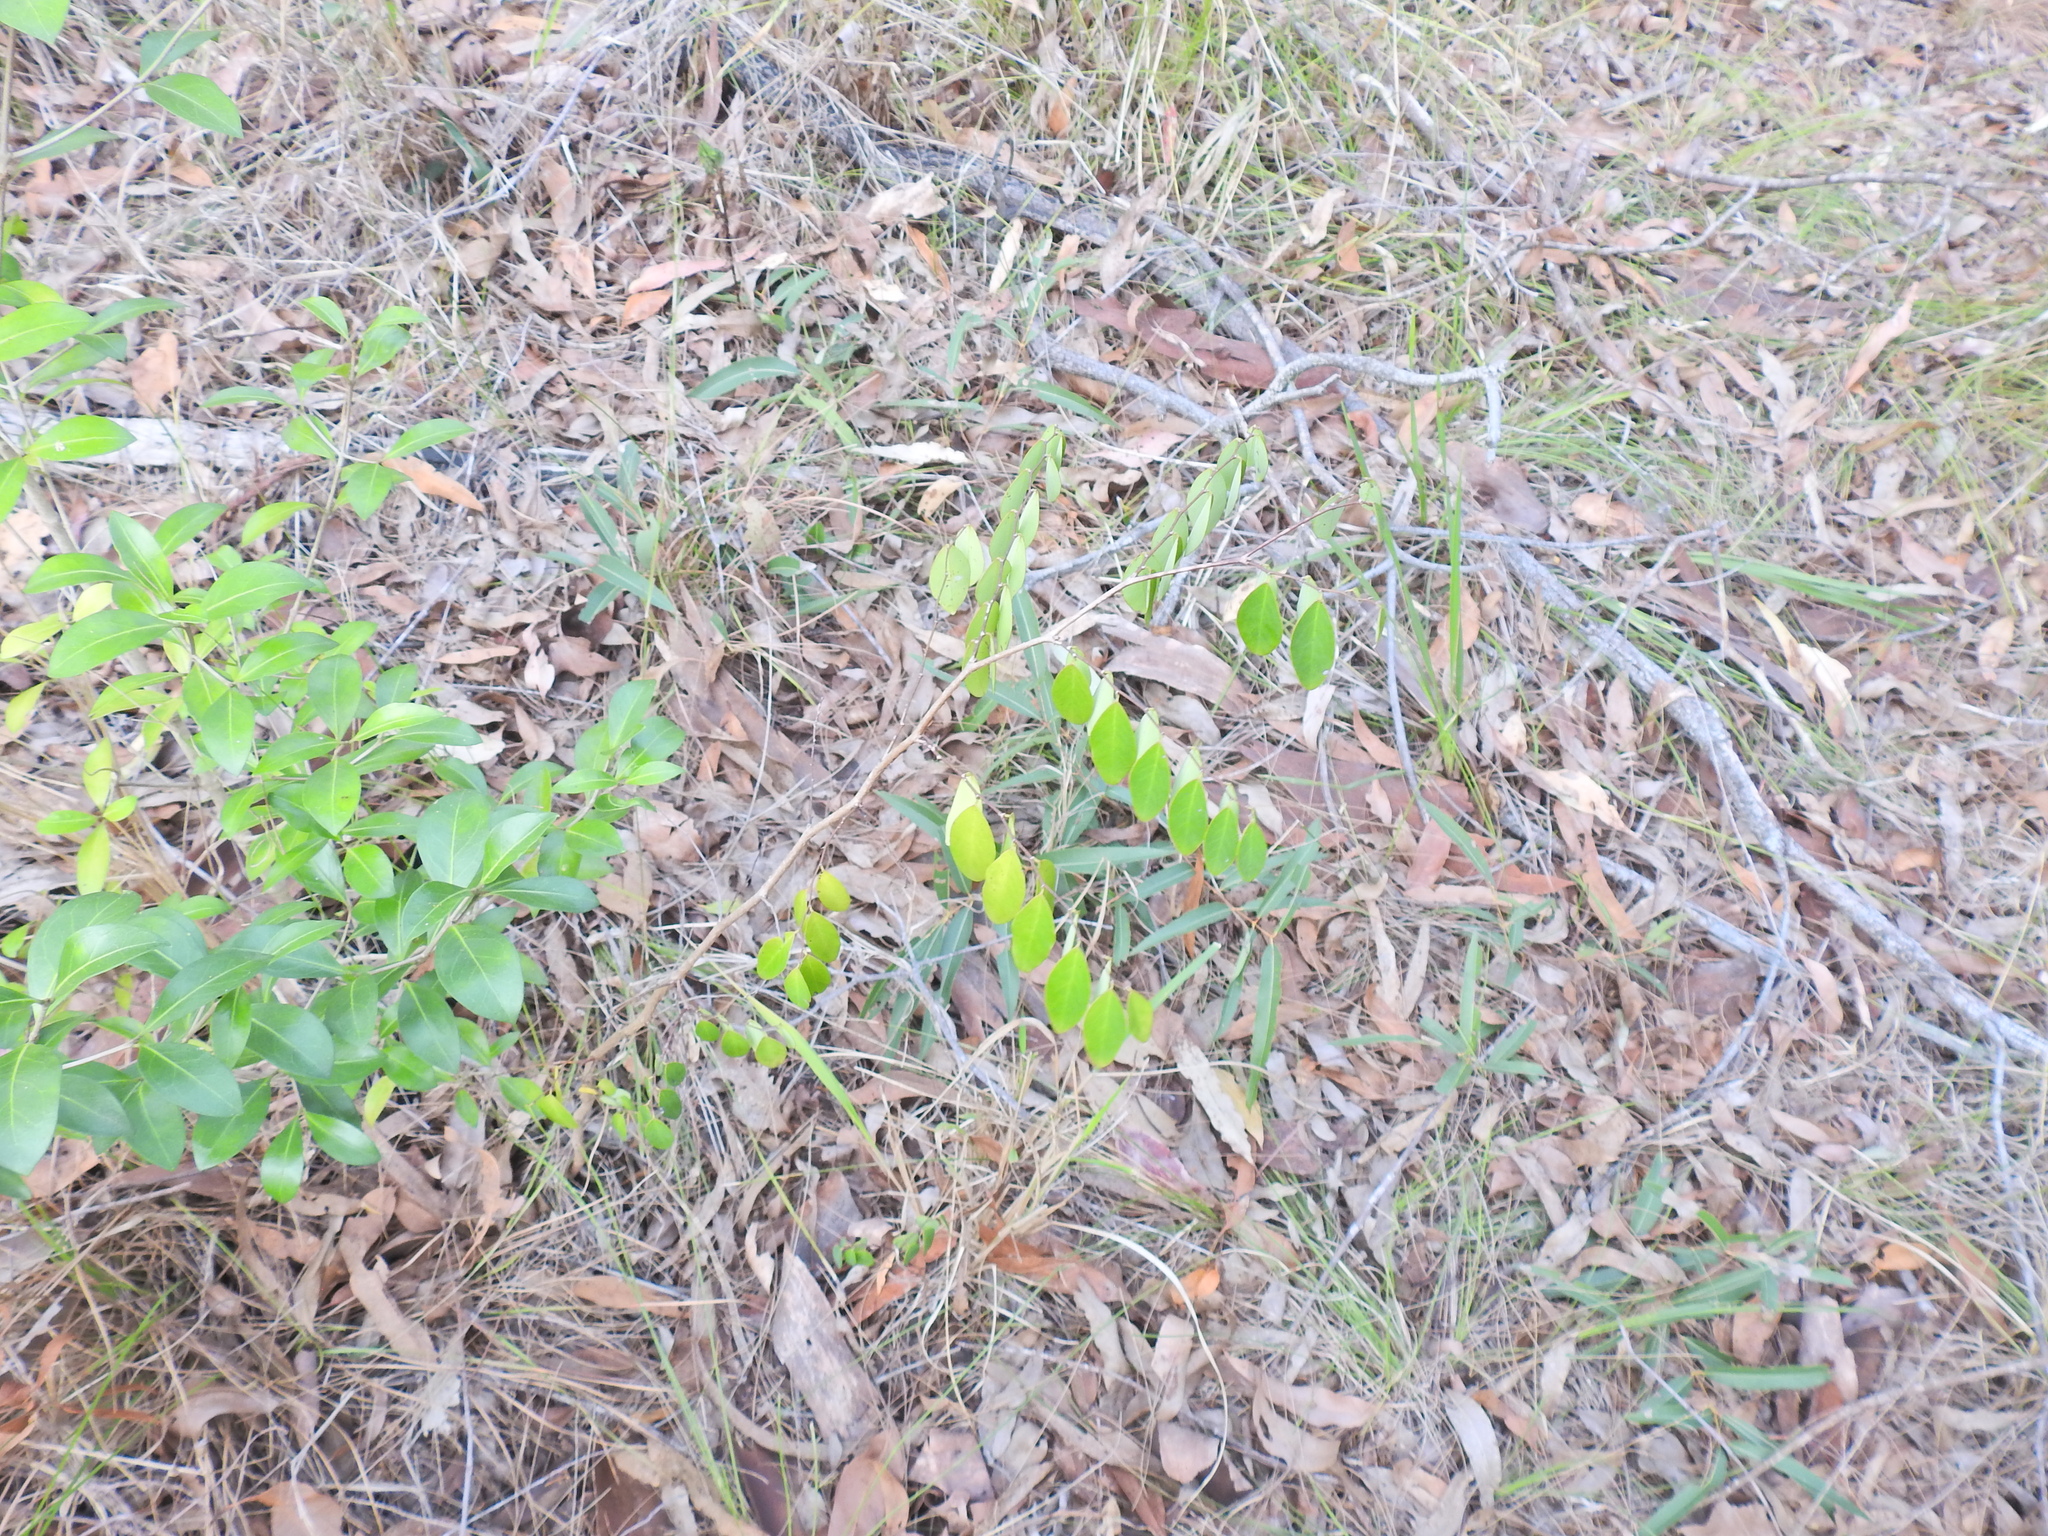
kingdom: Plantae
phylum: Tracheophyta
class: Magnoliopsida
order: Malpighiales
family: Phyllanthaceae
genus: Breynia
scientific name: Breynia oblongifolia
